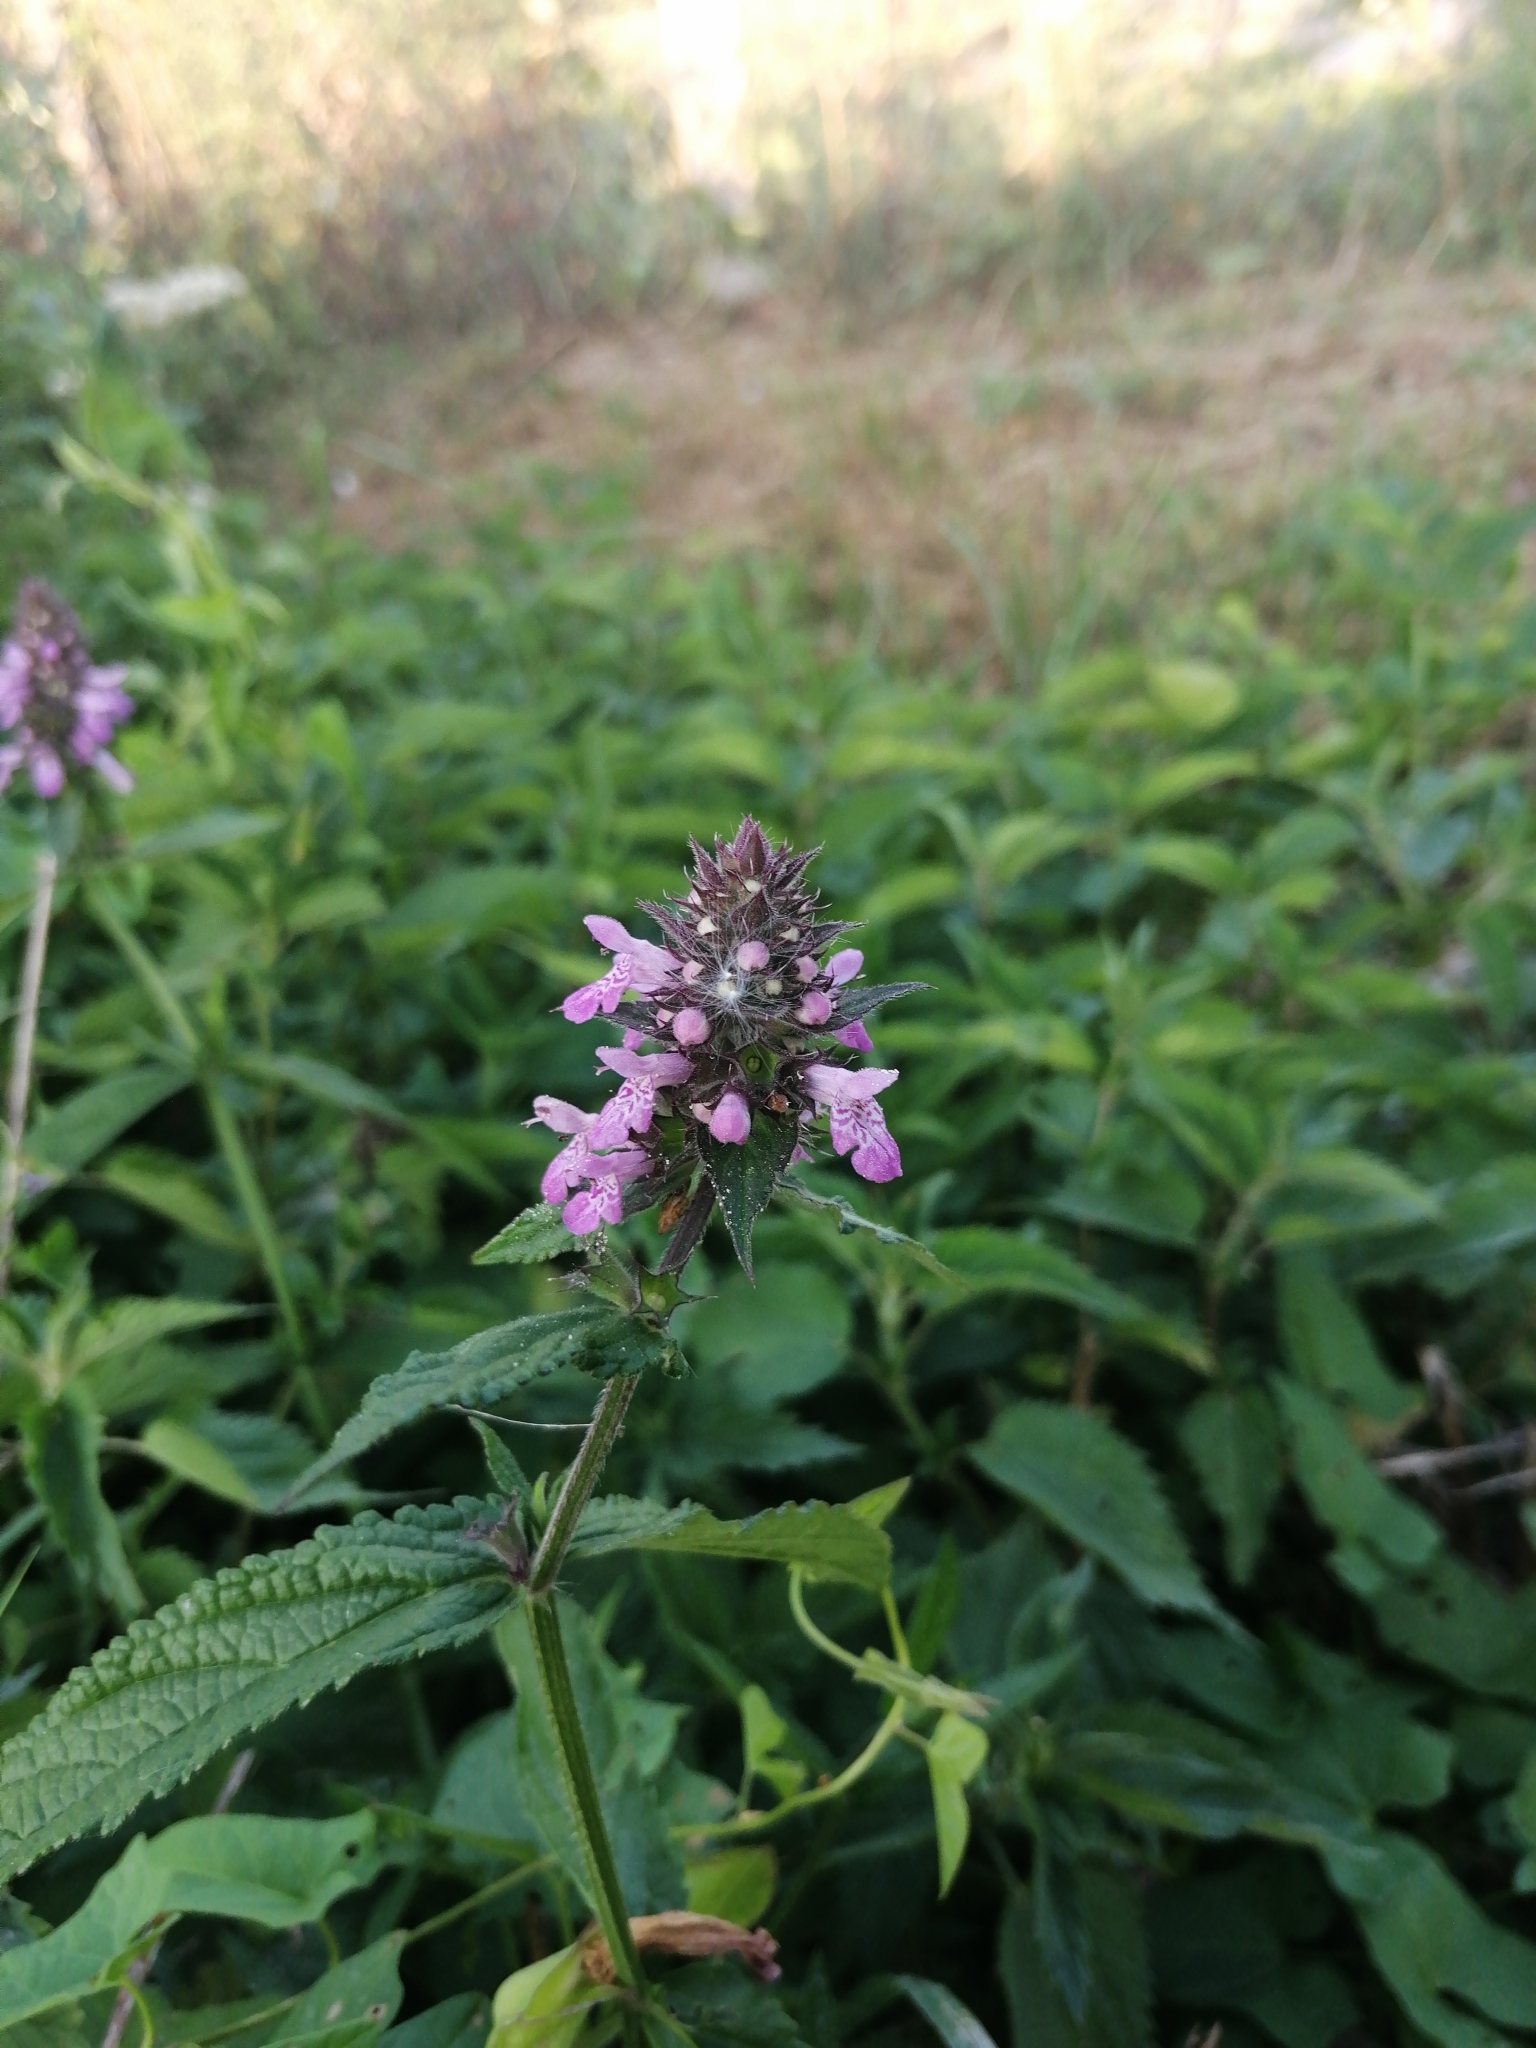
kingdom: Plantae
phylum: Tracheophyta
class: Magnoliopsida
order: Lamiales
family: Lamiaceae
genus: Stachys
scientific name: Stachys palustris
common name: Marsh woundwort
